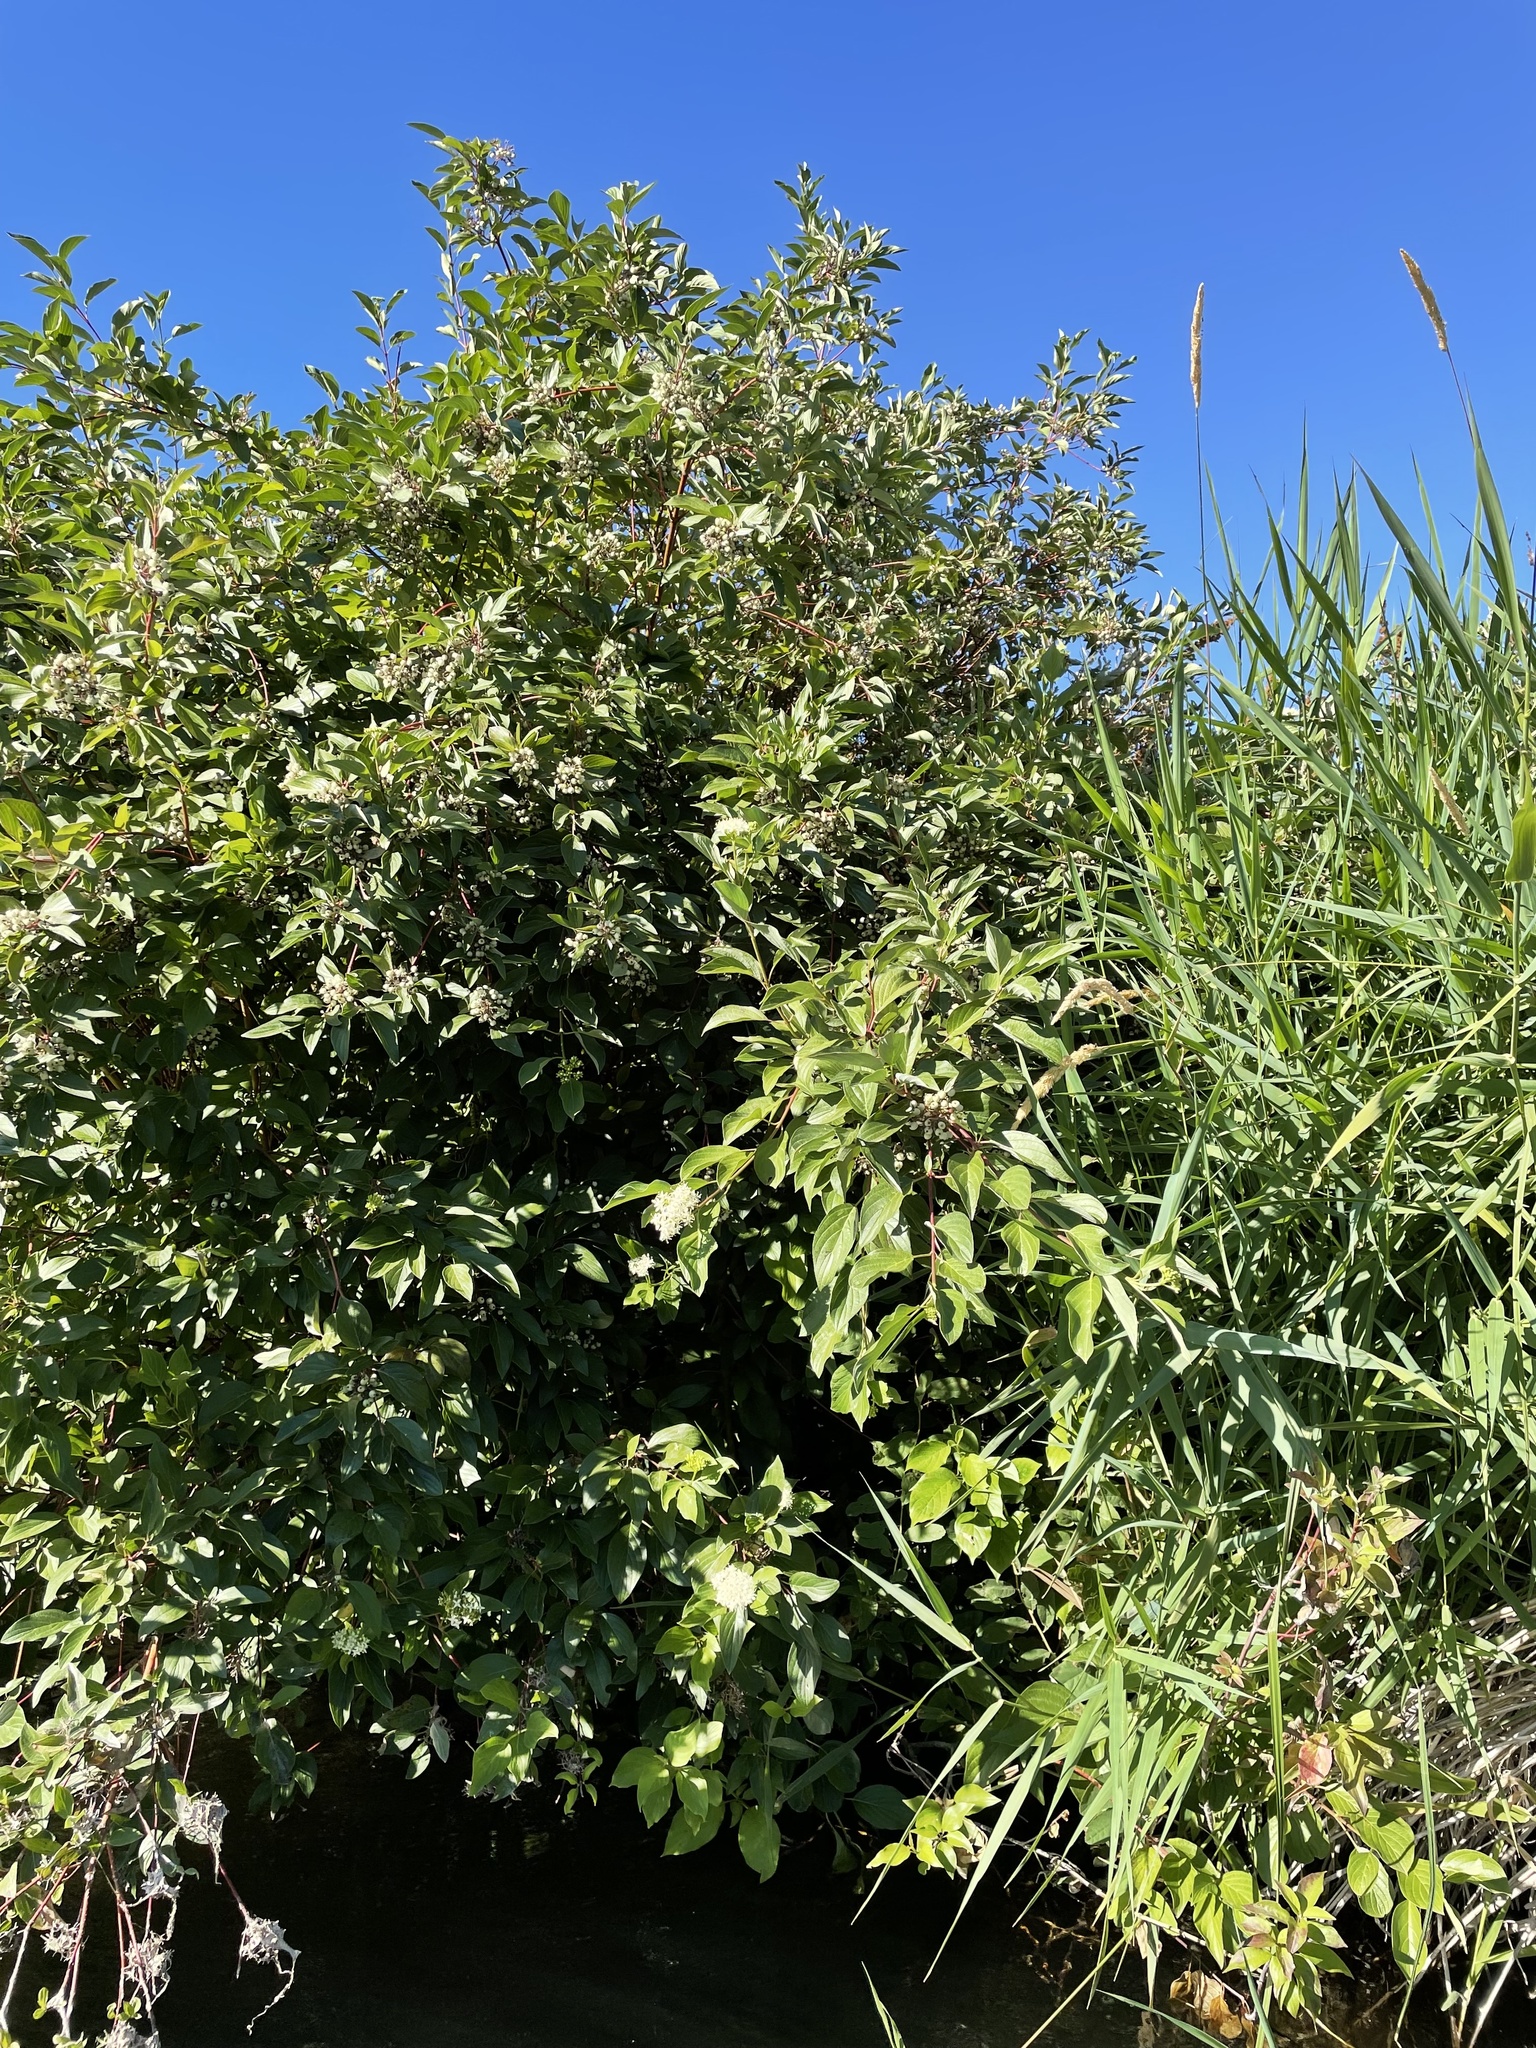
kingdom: Plantae
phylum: Tracheophyta
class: Magnoliopsida
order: Cornales
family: Cornaceae
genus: Cornus
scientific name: Cornus sericea
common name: Red-osier dogwood
